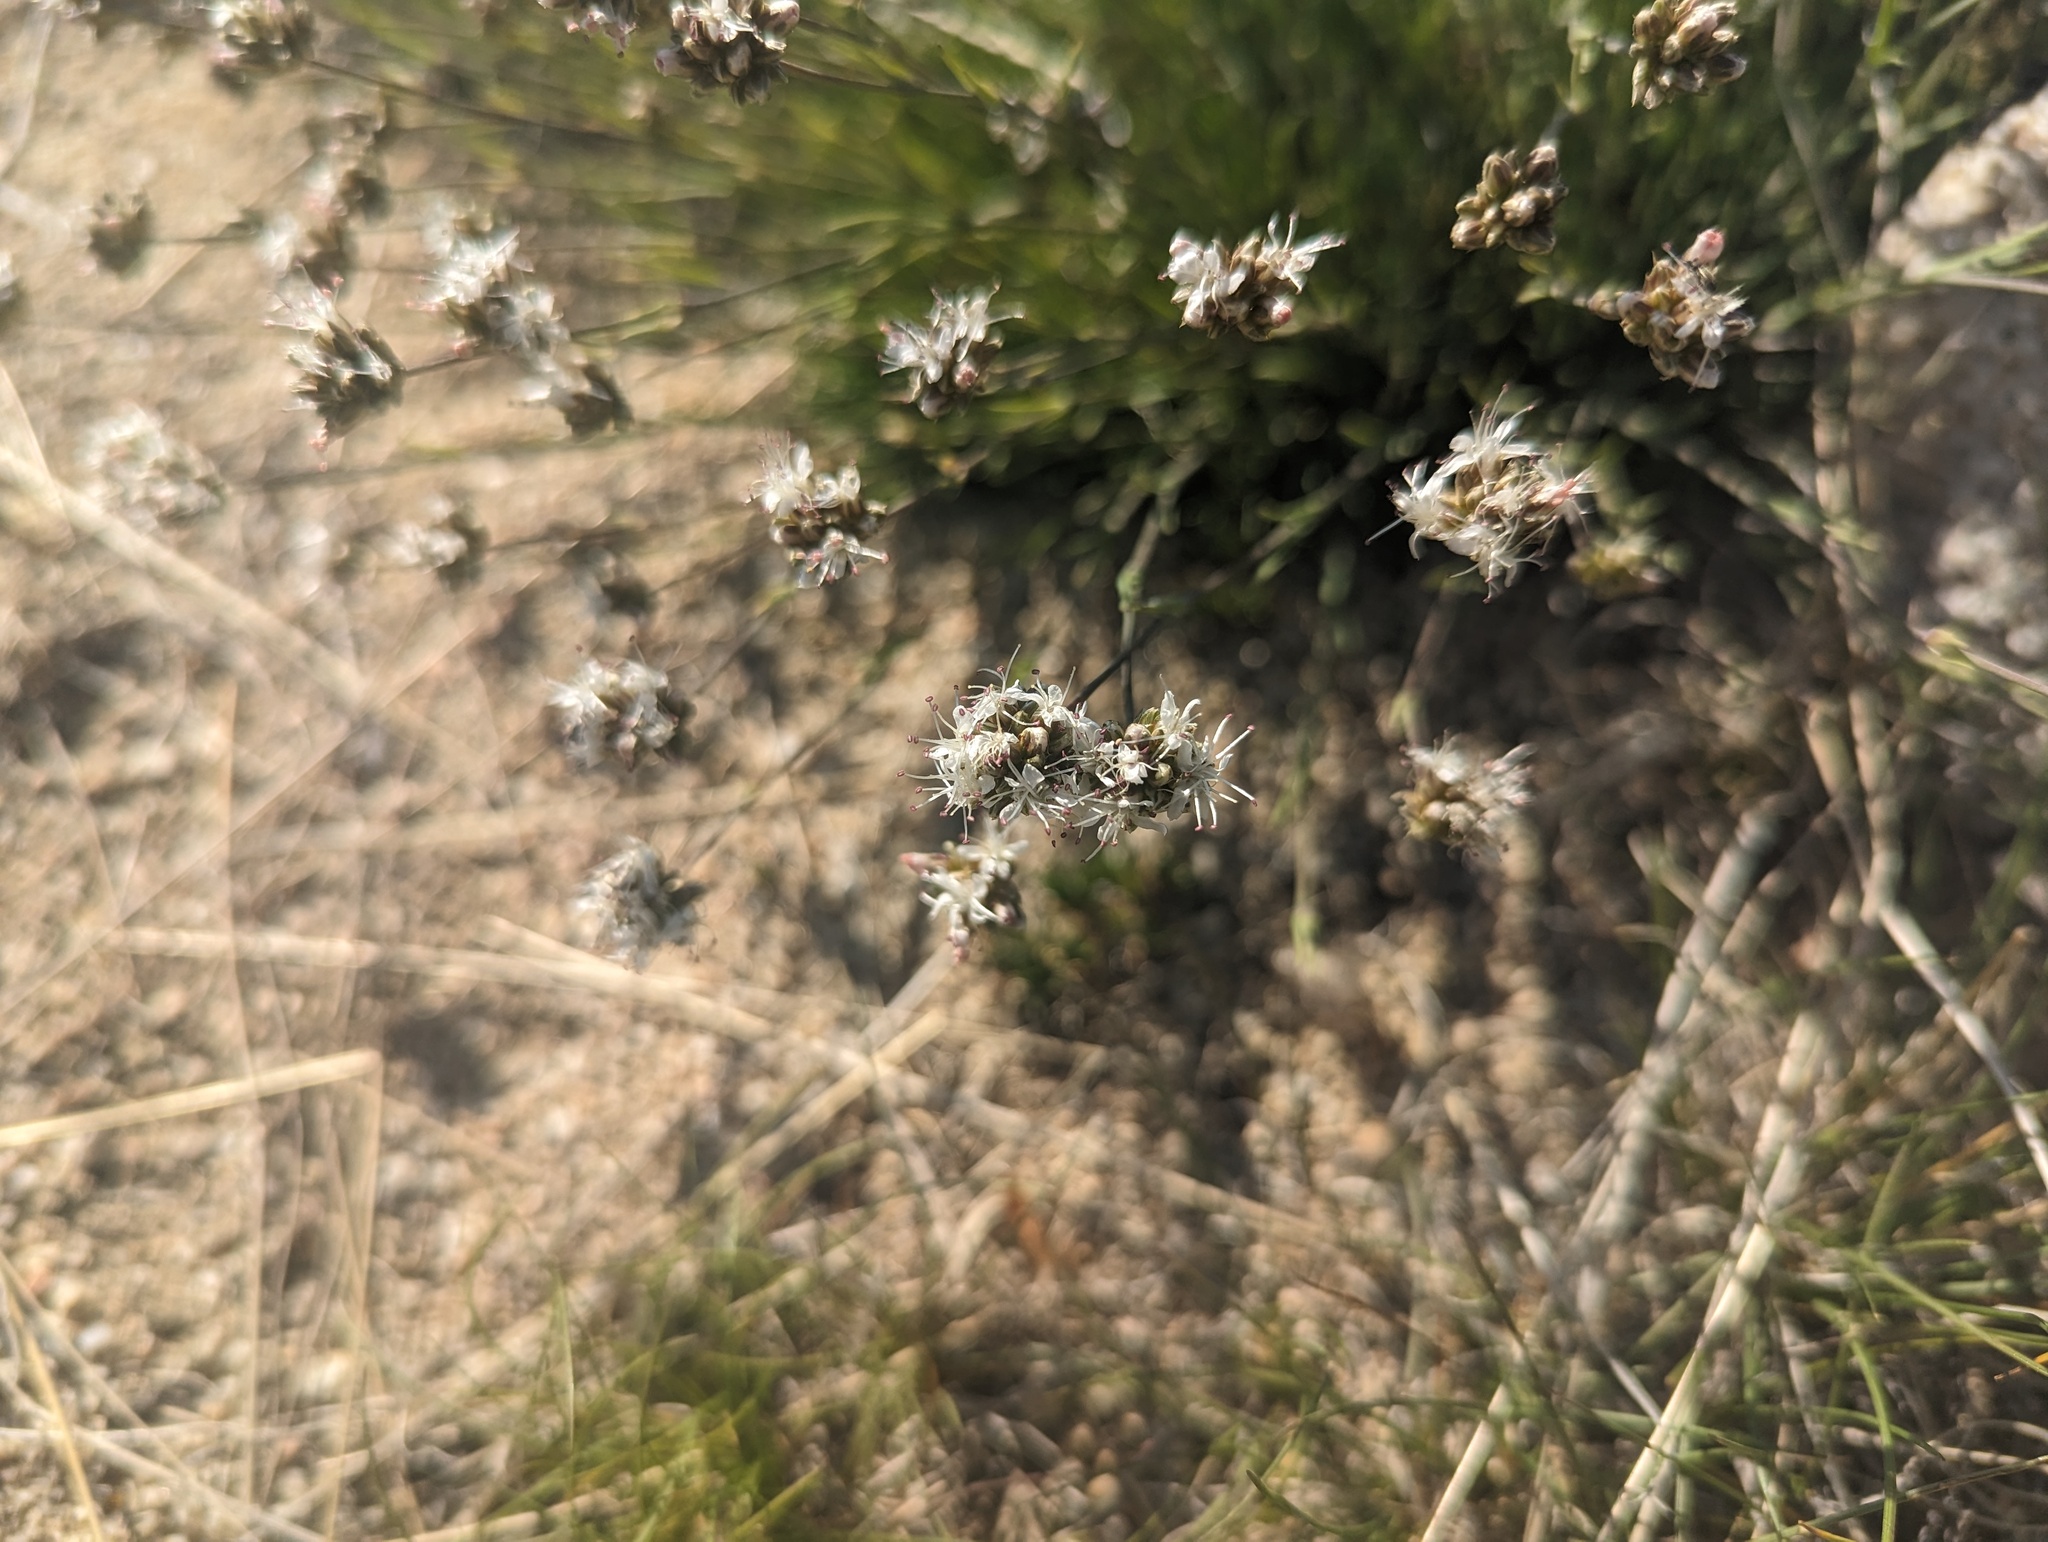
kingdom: Plantae
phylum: Tracheophyta
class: Magnoliopsida
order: Caryophyllales
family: Caryophyllaceae
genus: Eremogone
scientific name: Eremogone congesta
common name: Ballhead sandwort
